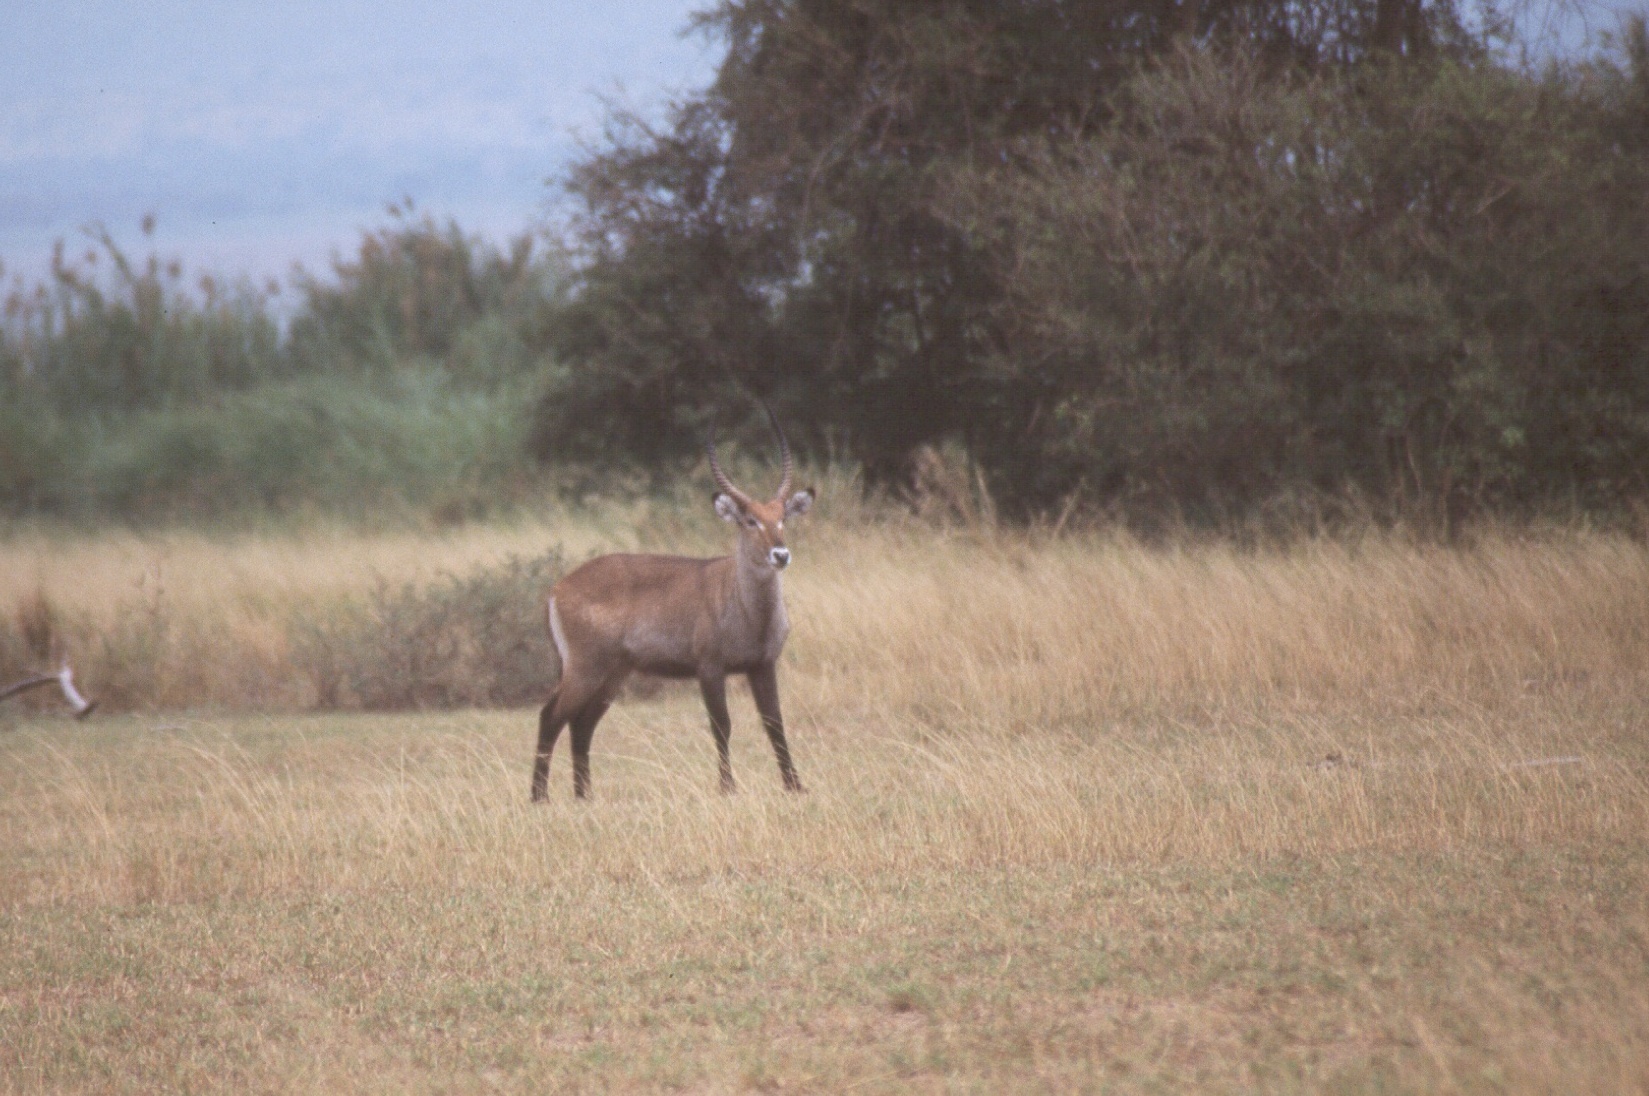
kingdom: Animalia
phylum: Chordata
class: Mammalia
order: Artiodactyla
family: Bovidae
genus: Kobus
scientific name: Kobus ellipsiprymnus
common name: Waterbuck
